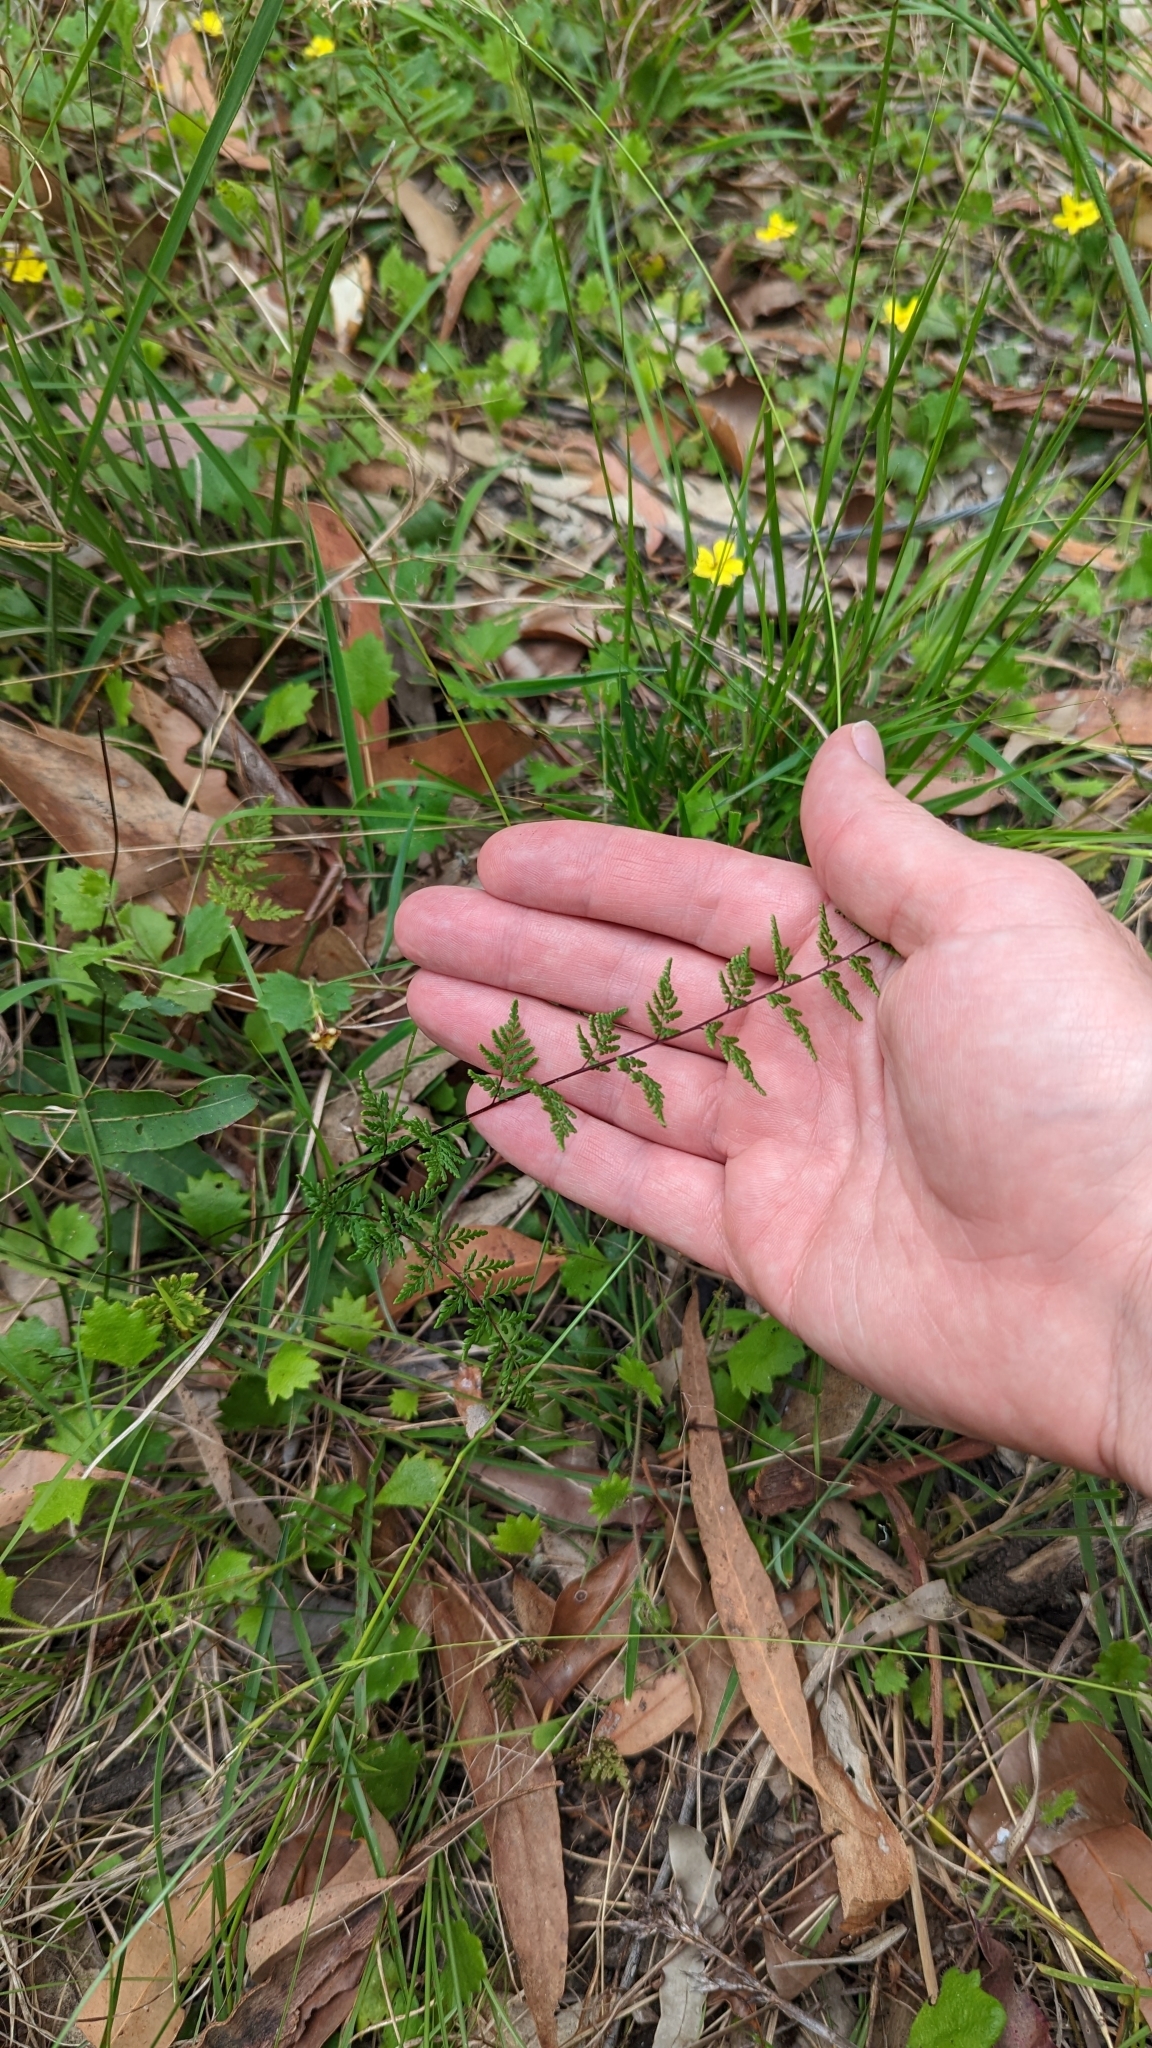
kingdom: Plantae
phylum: Tracheophyta
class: Polypodiopsida
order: Polypodiales
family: Pteridaceae
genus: Cheilanthes
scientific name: Cheilanthes sieberi
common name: Mulga fern
